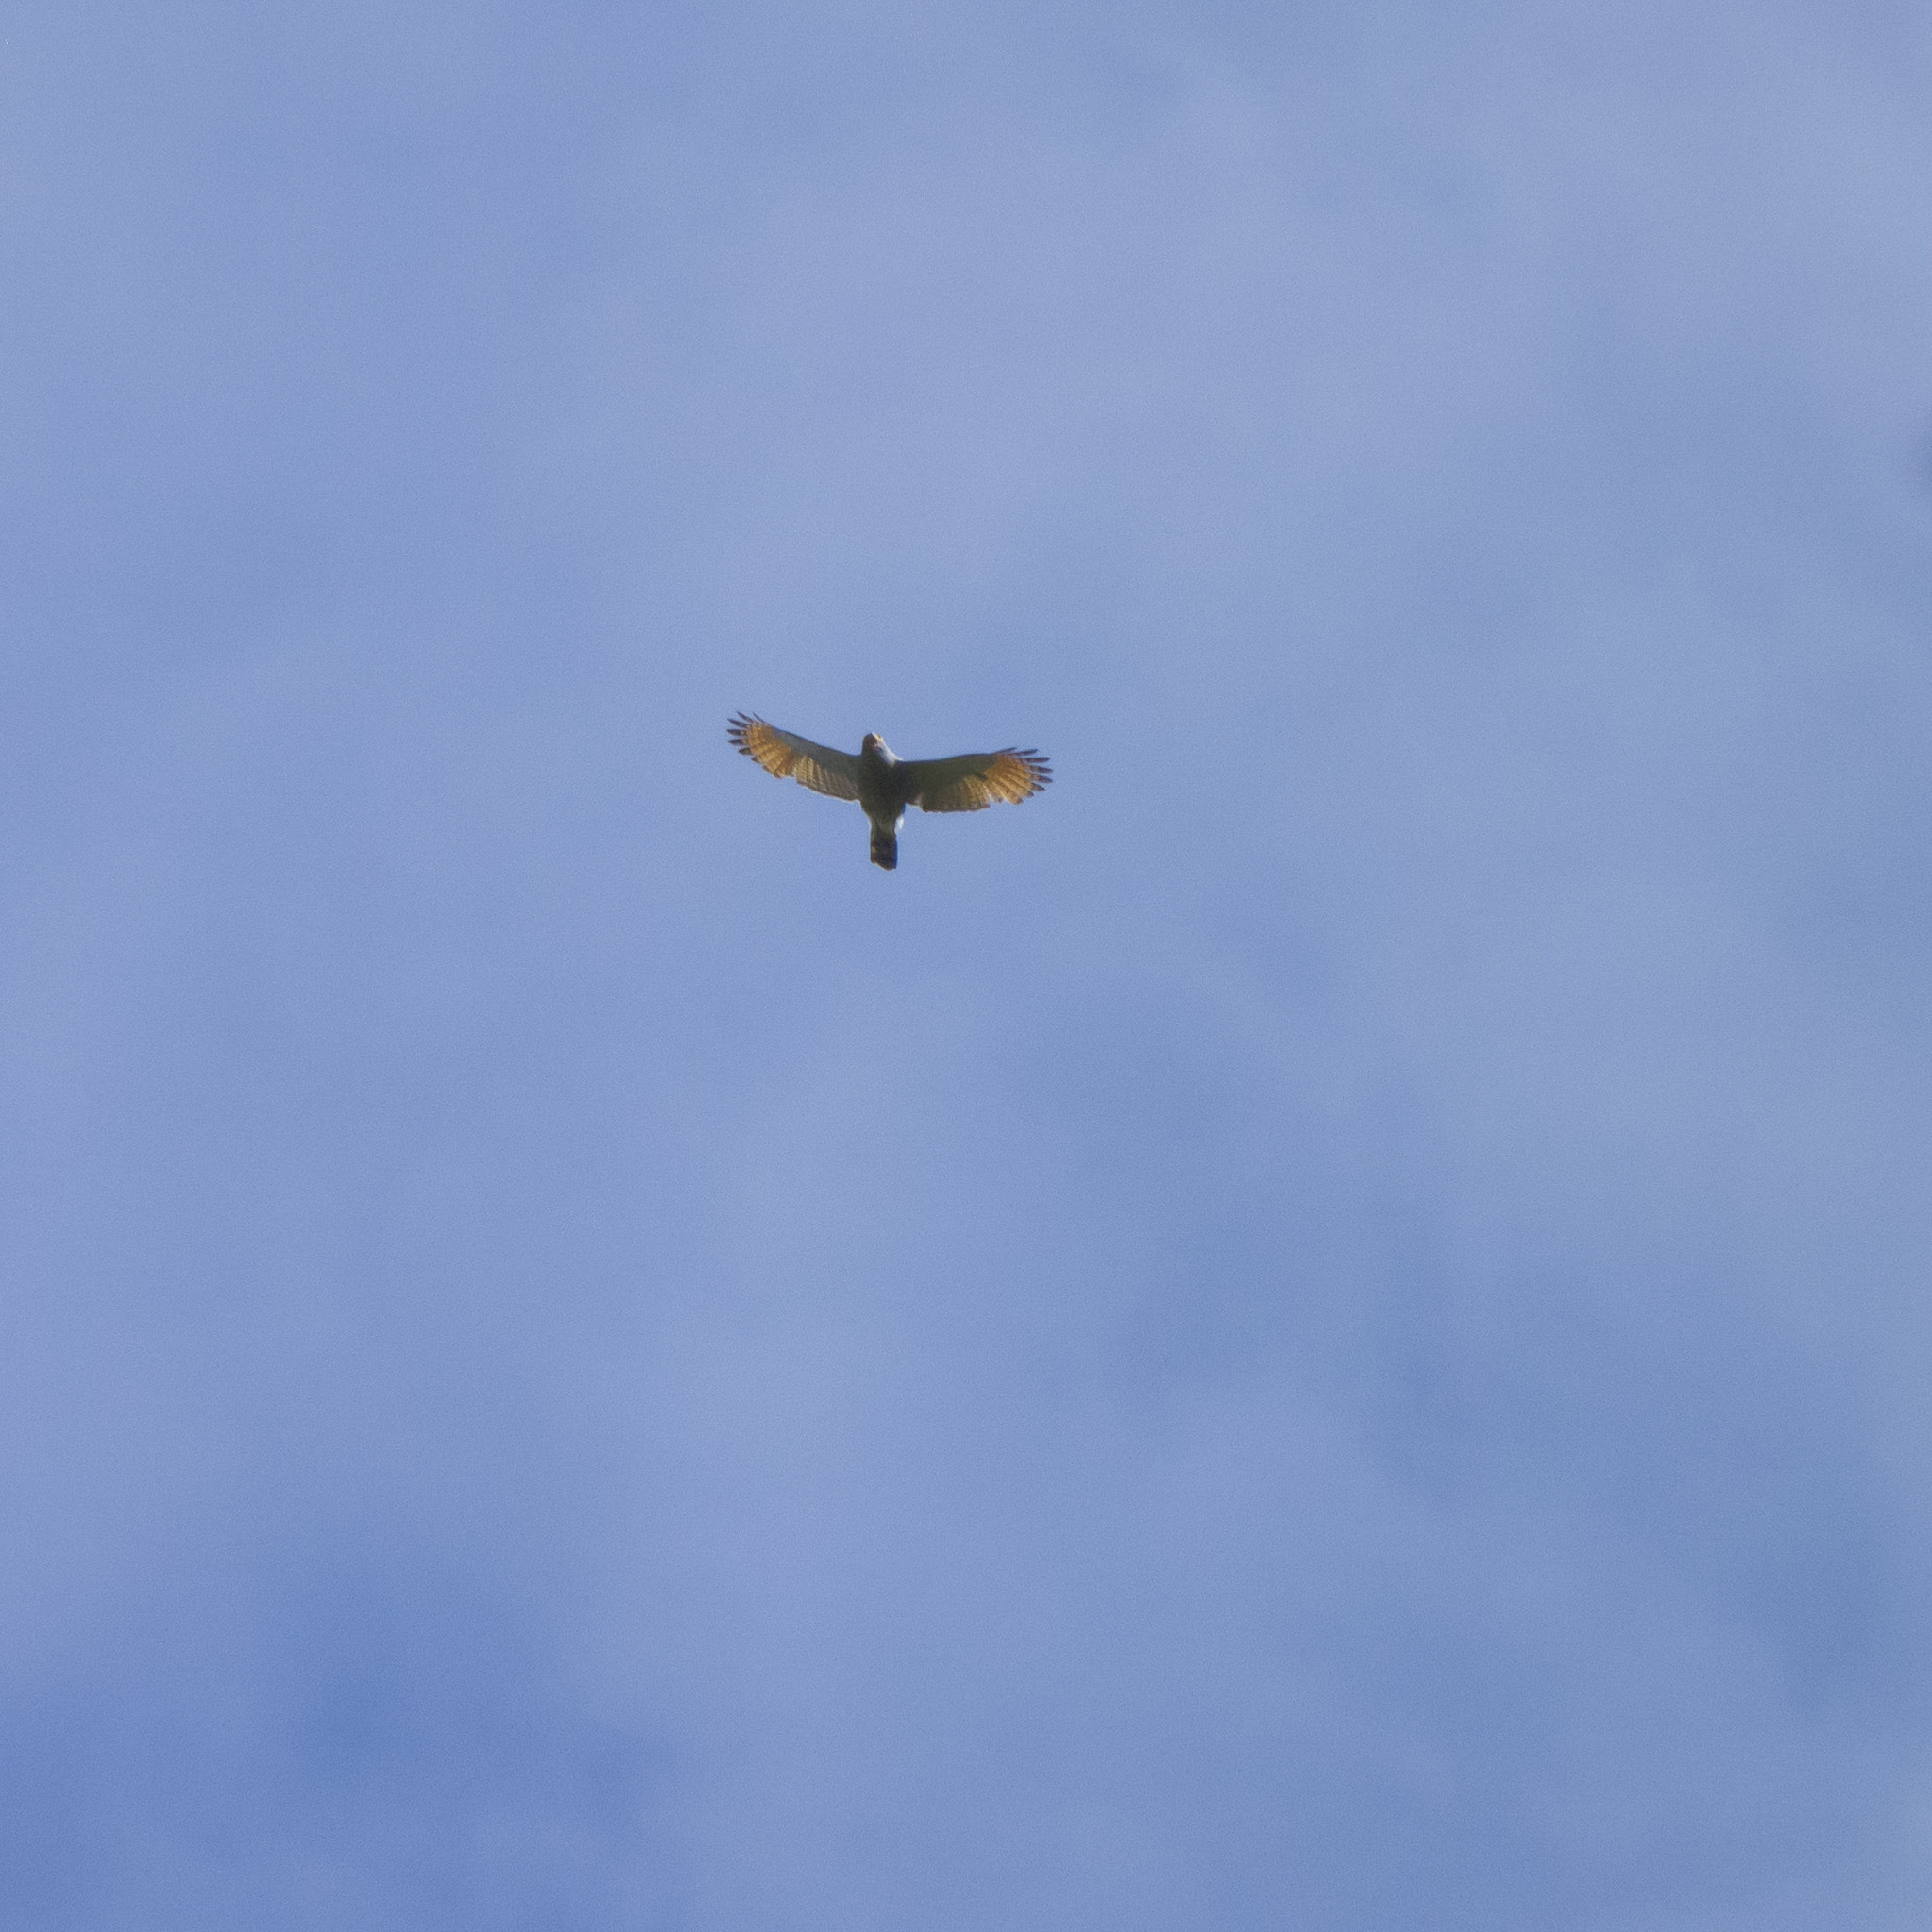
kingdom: Animalia
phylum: Chordata
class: Aves
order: Accipitriformes
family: Accipitridae
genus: Rupornis
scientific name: Rupornis magnirostris
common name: Roadside hawk
